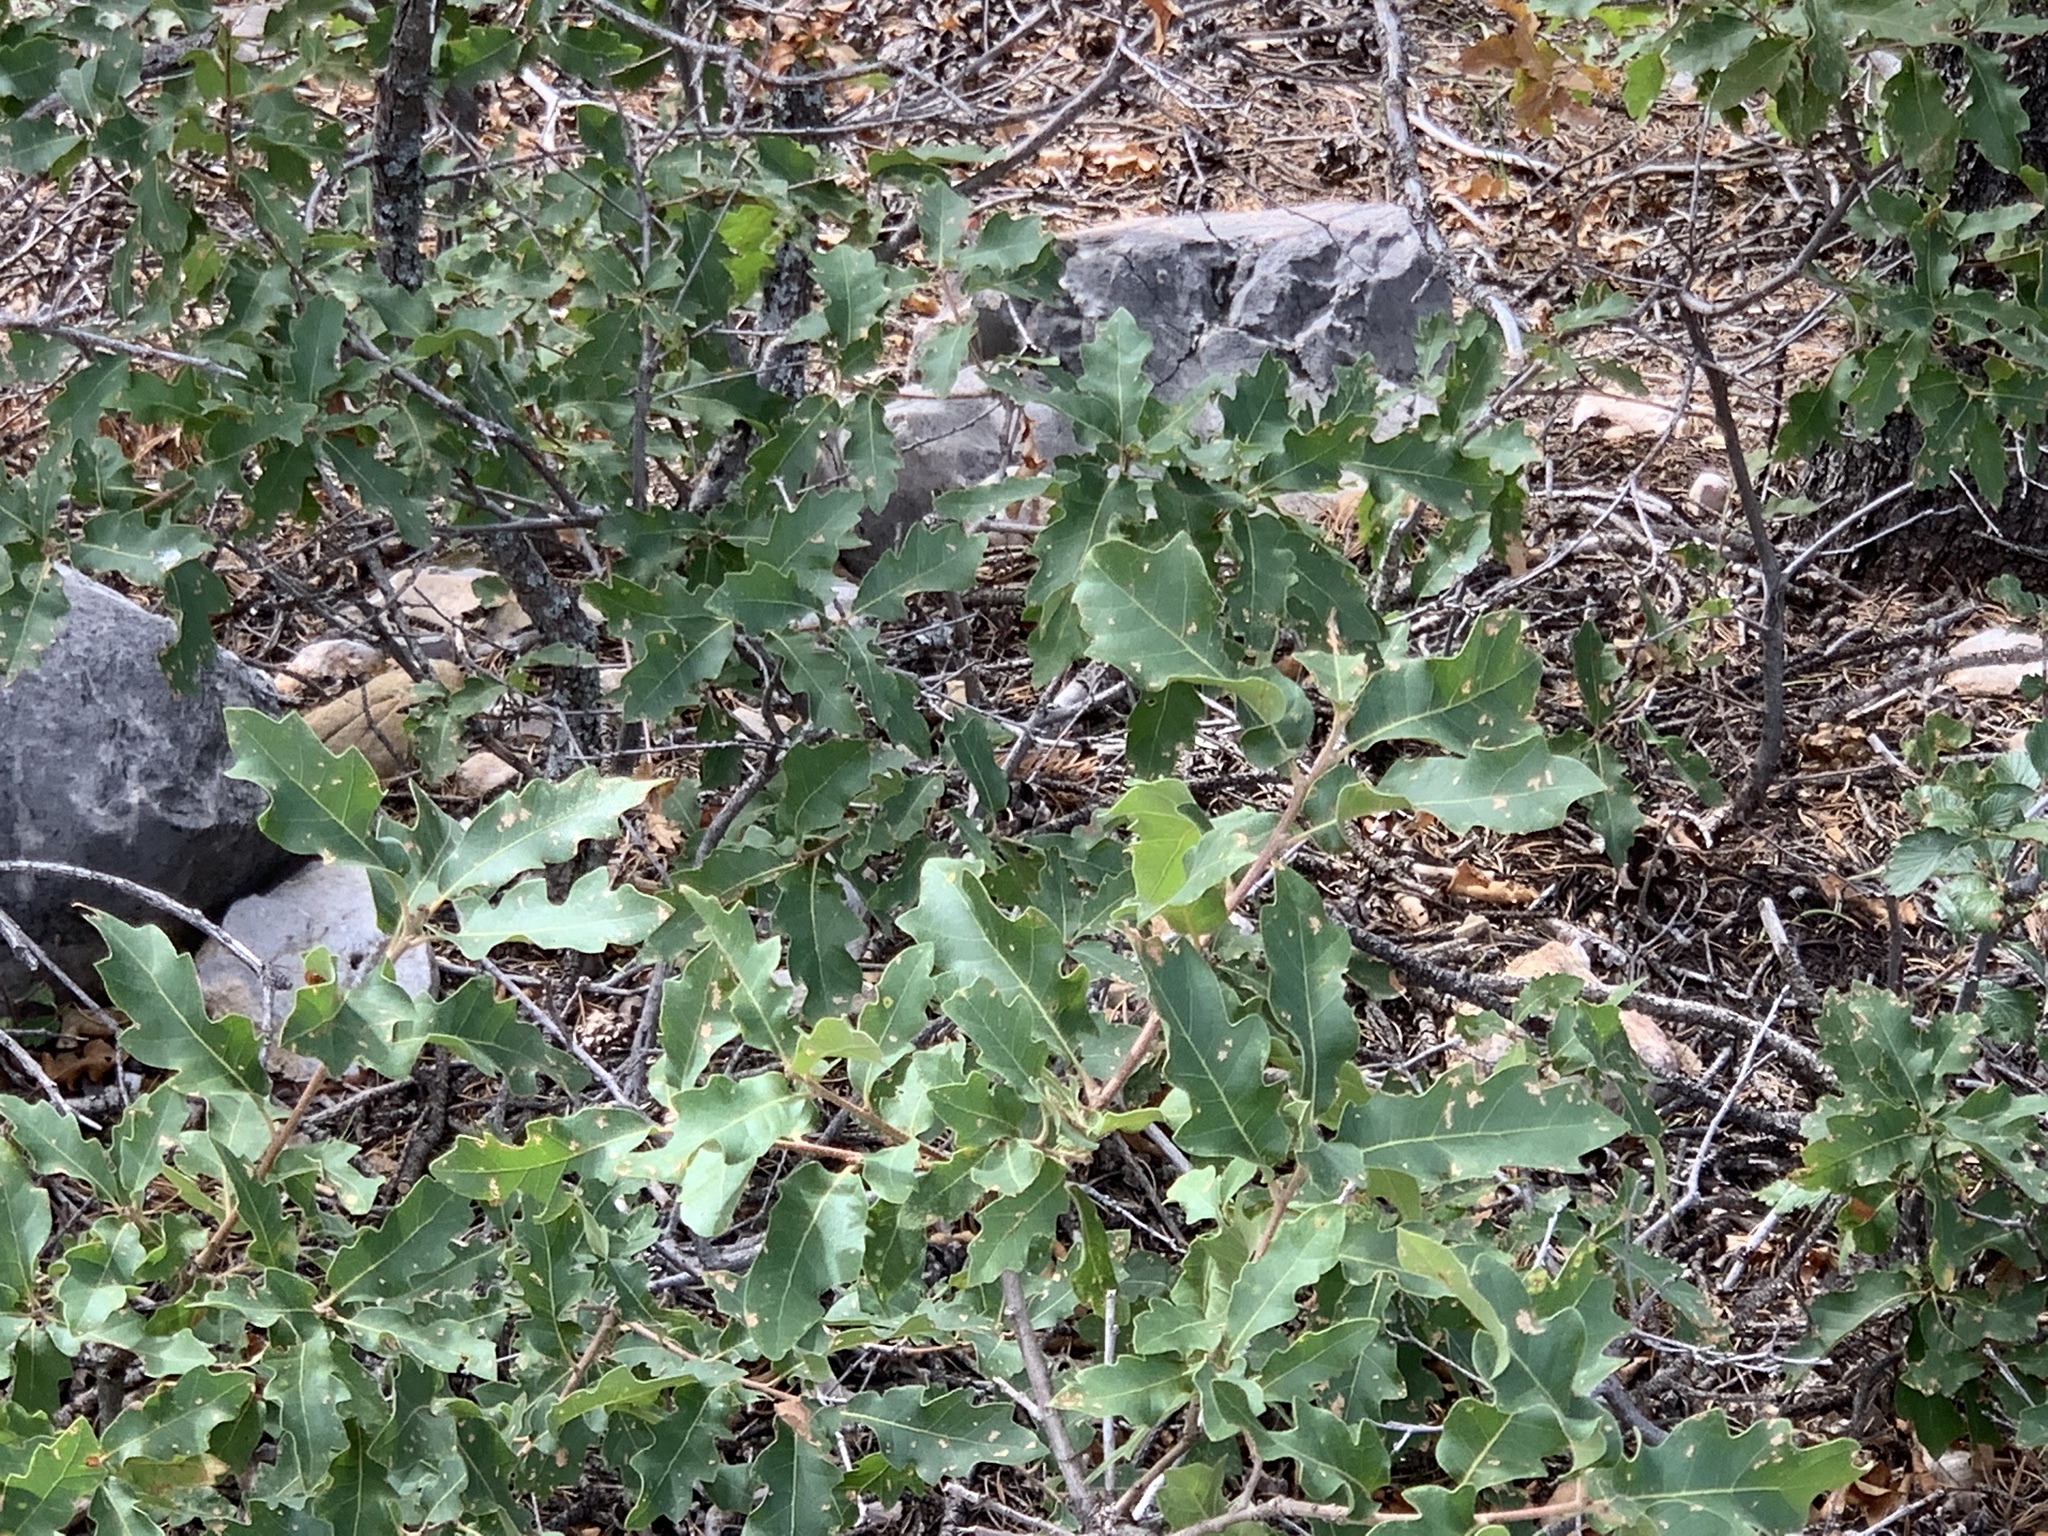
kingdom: Plantae
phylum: Tracheophyta
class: Magnoliopsida
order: Fagales
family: Fagaceae
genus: Quercus
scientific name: Quercus undulata
